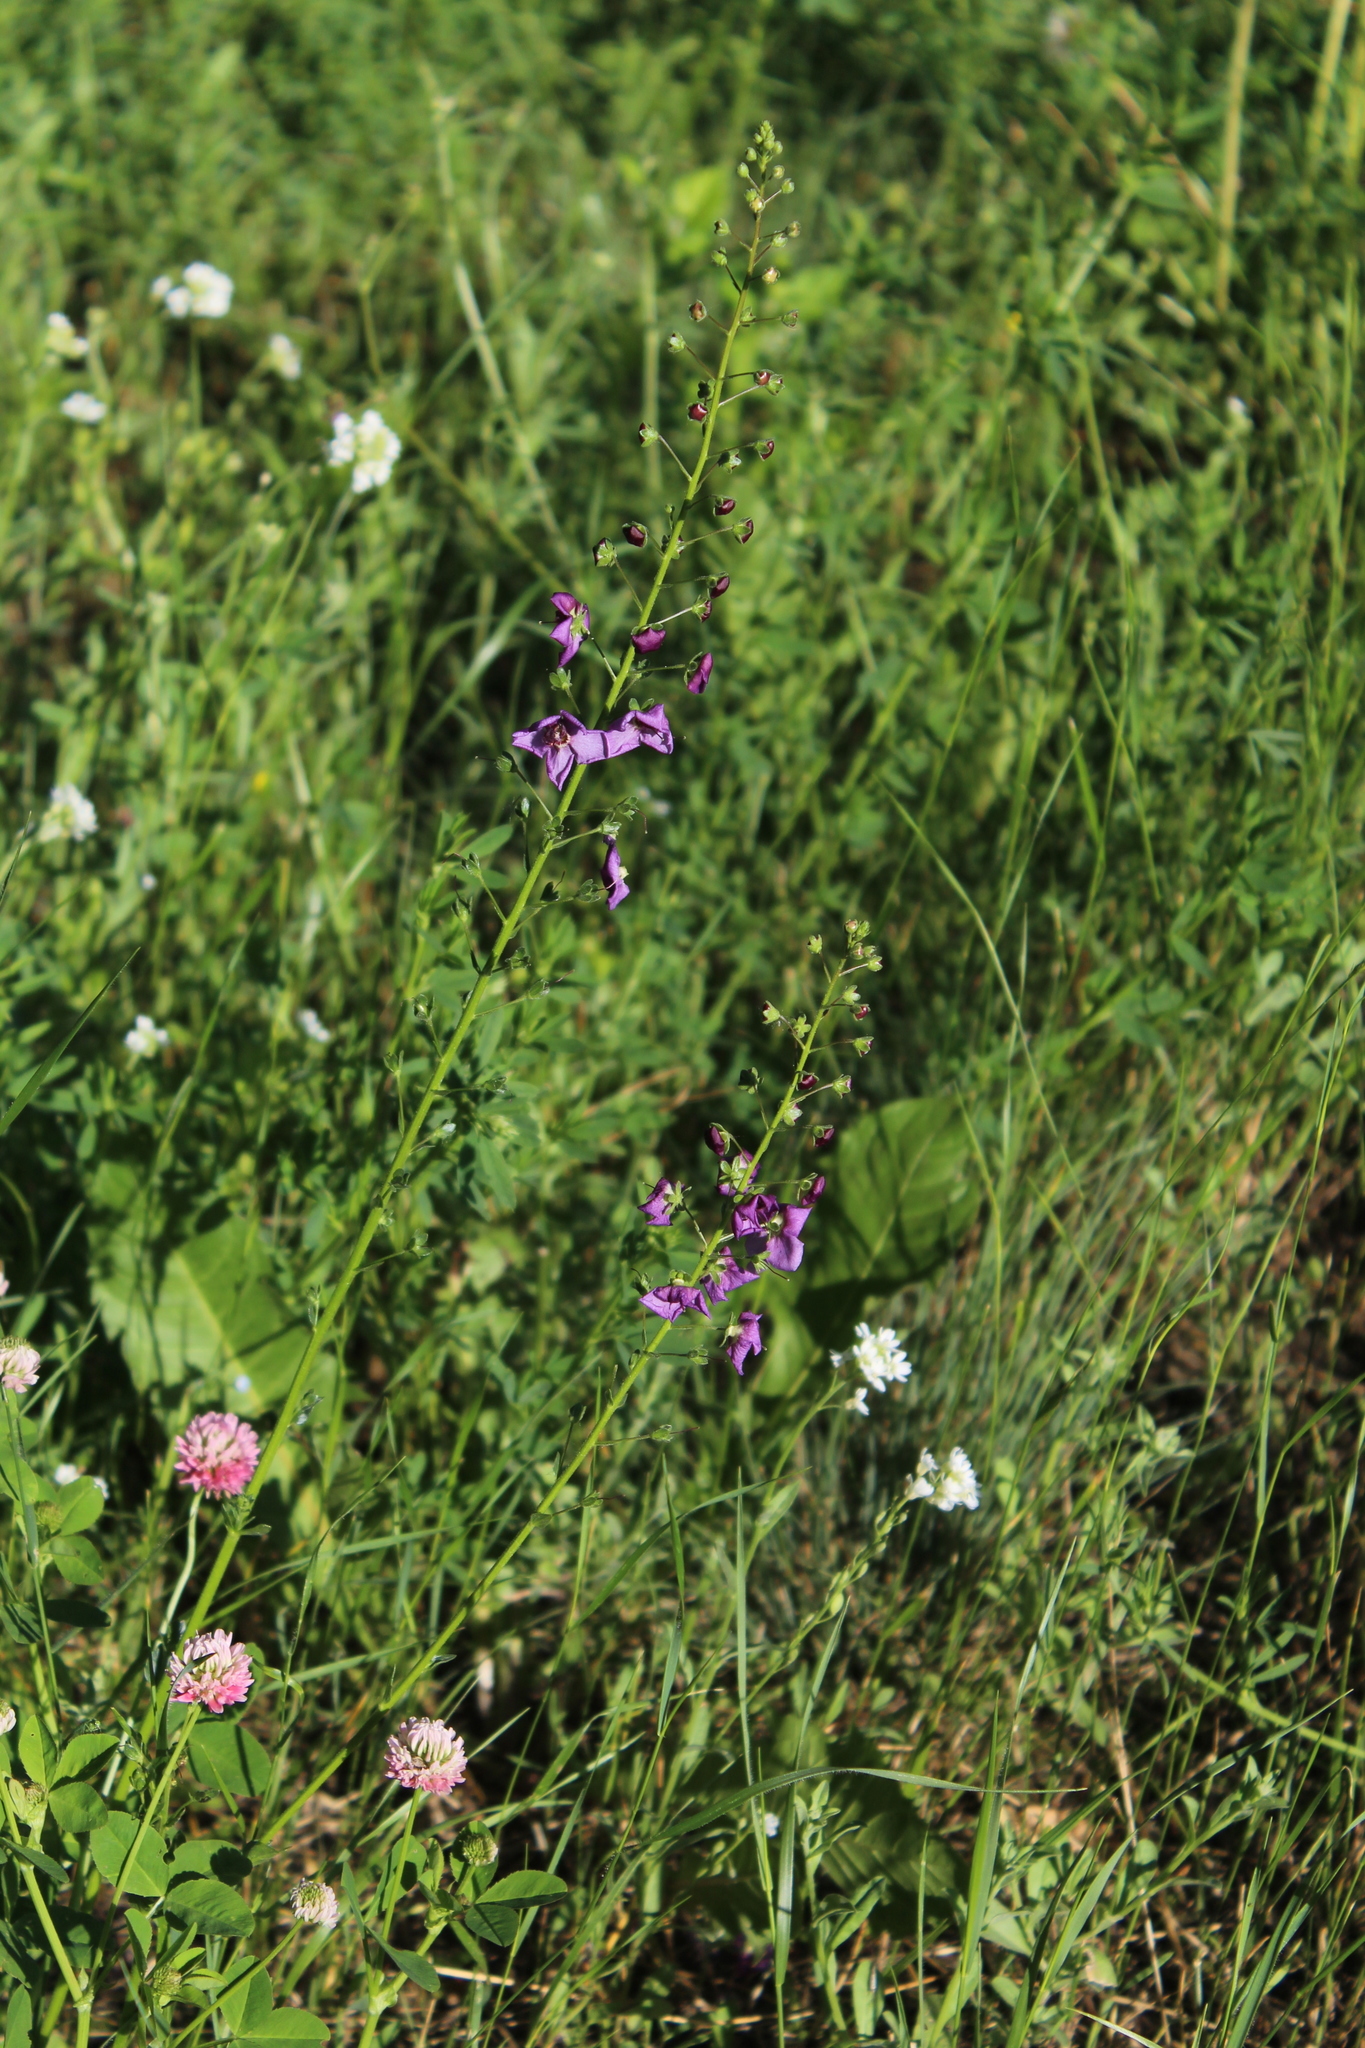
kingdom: Plantae
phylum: Tracheophyta
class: Magnoliopsida
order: Lamiales
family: Scrophulariaceae
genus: Verbascum
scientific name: Verbascum phoeniceum
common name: Purple mullein
